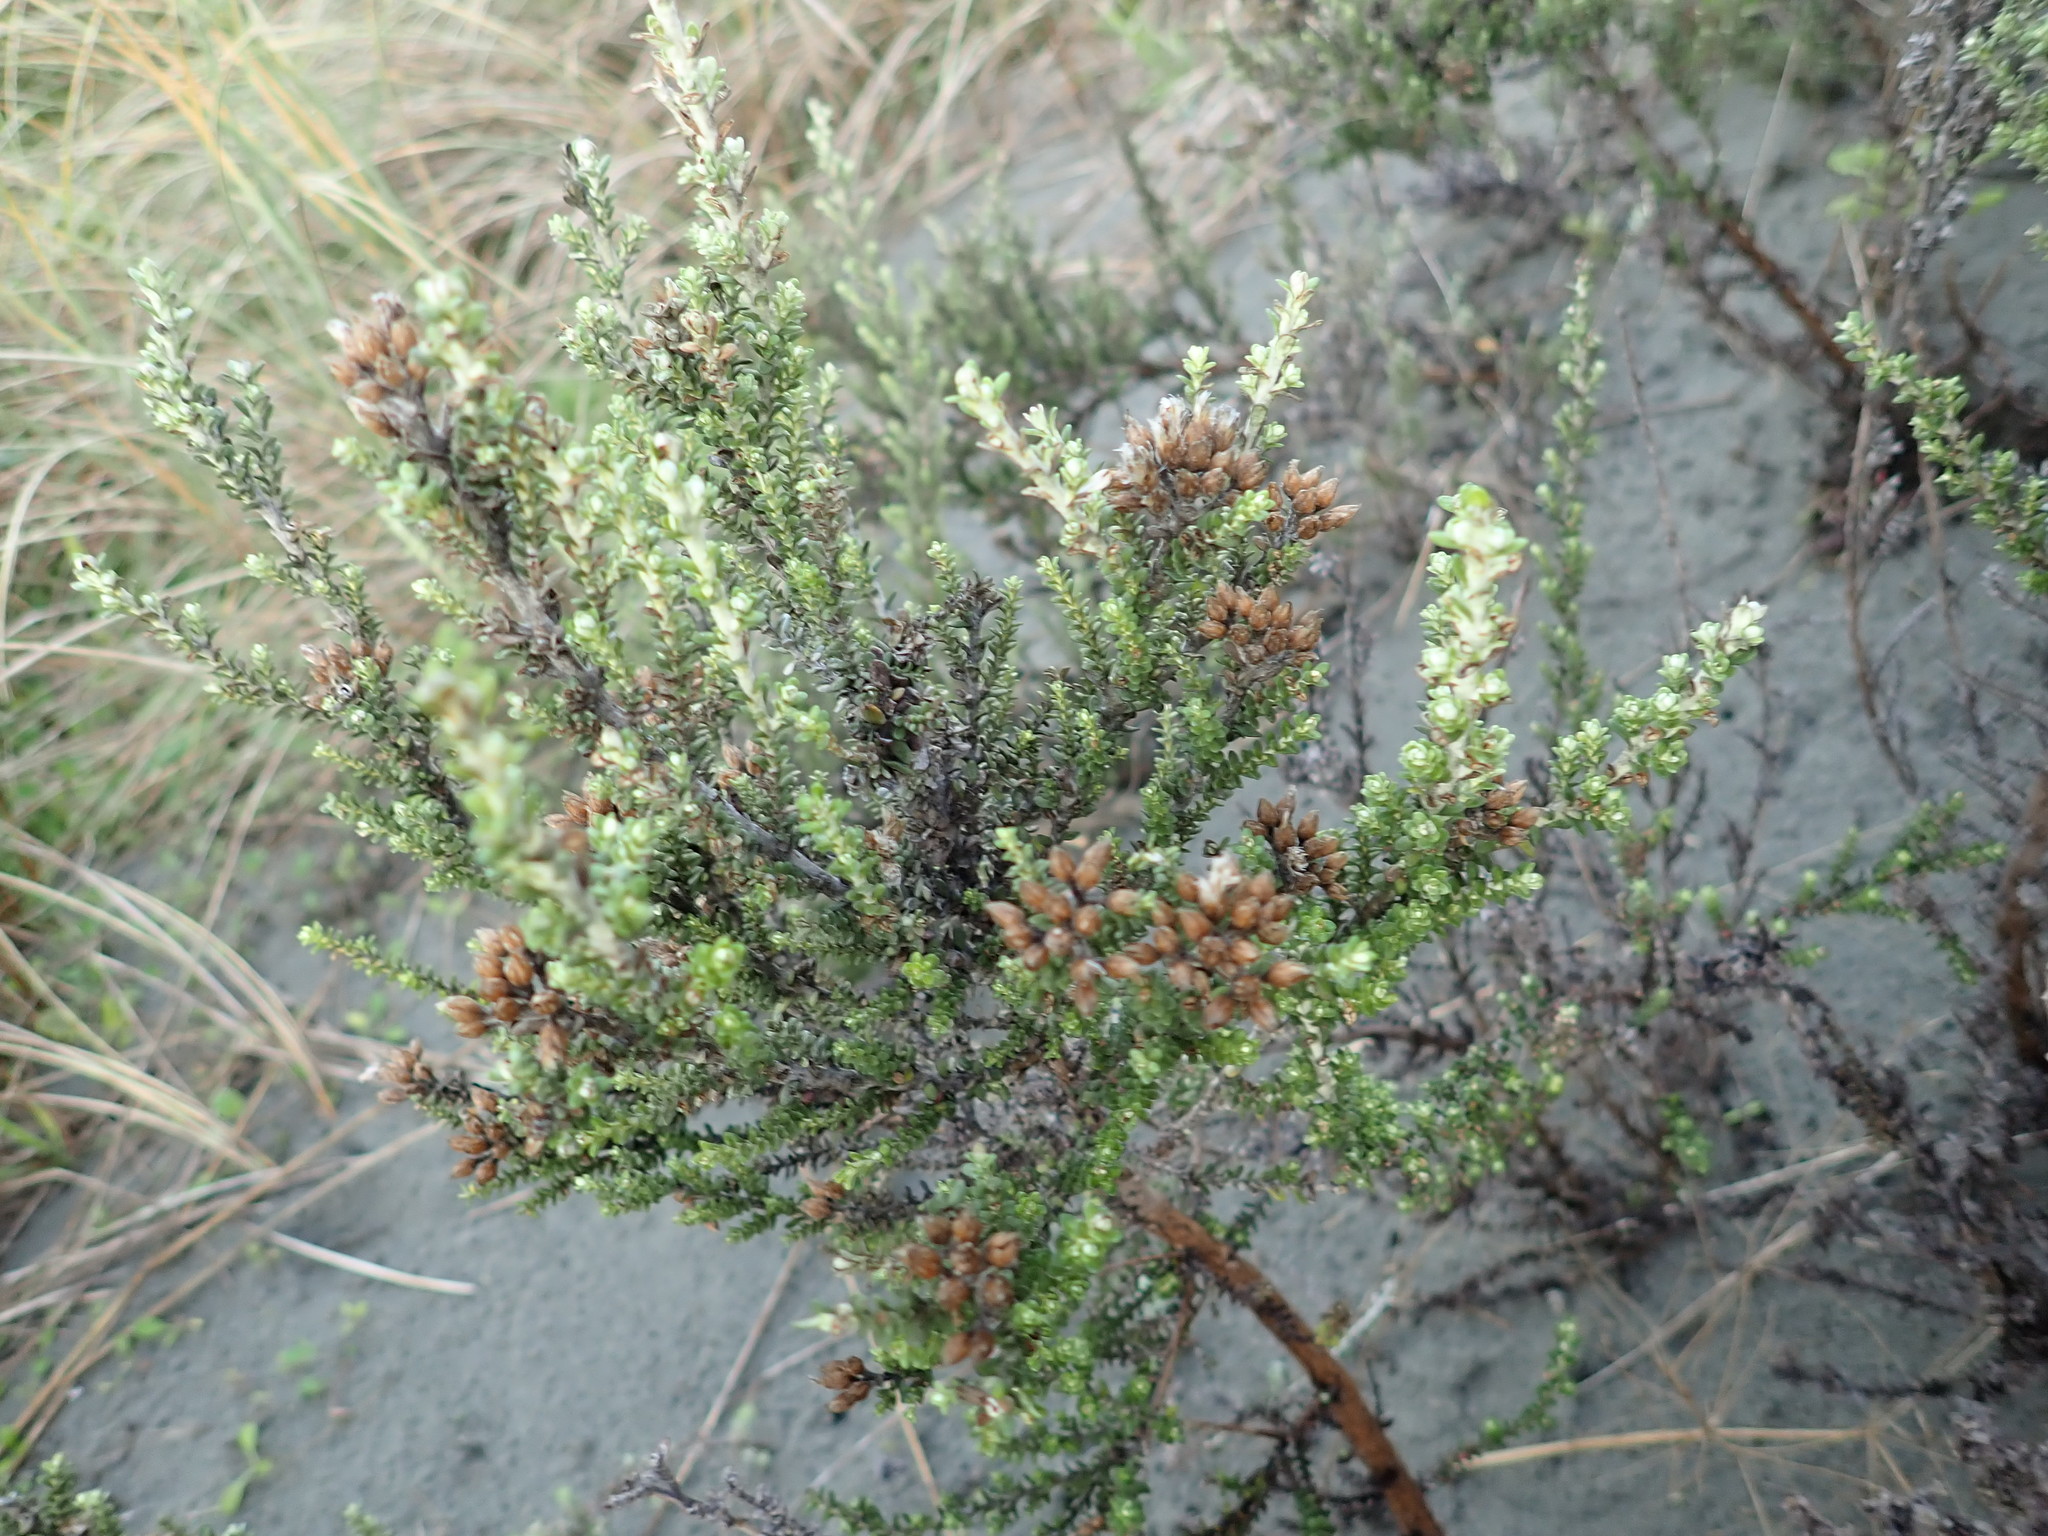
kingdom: Plantae
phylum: Tracheophyta
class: Magnoliopsida
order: Asterales
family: Asteraceae
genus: Ozothamnus
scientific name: Ozothamnus leptophyllus
